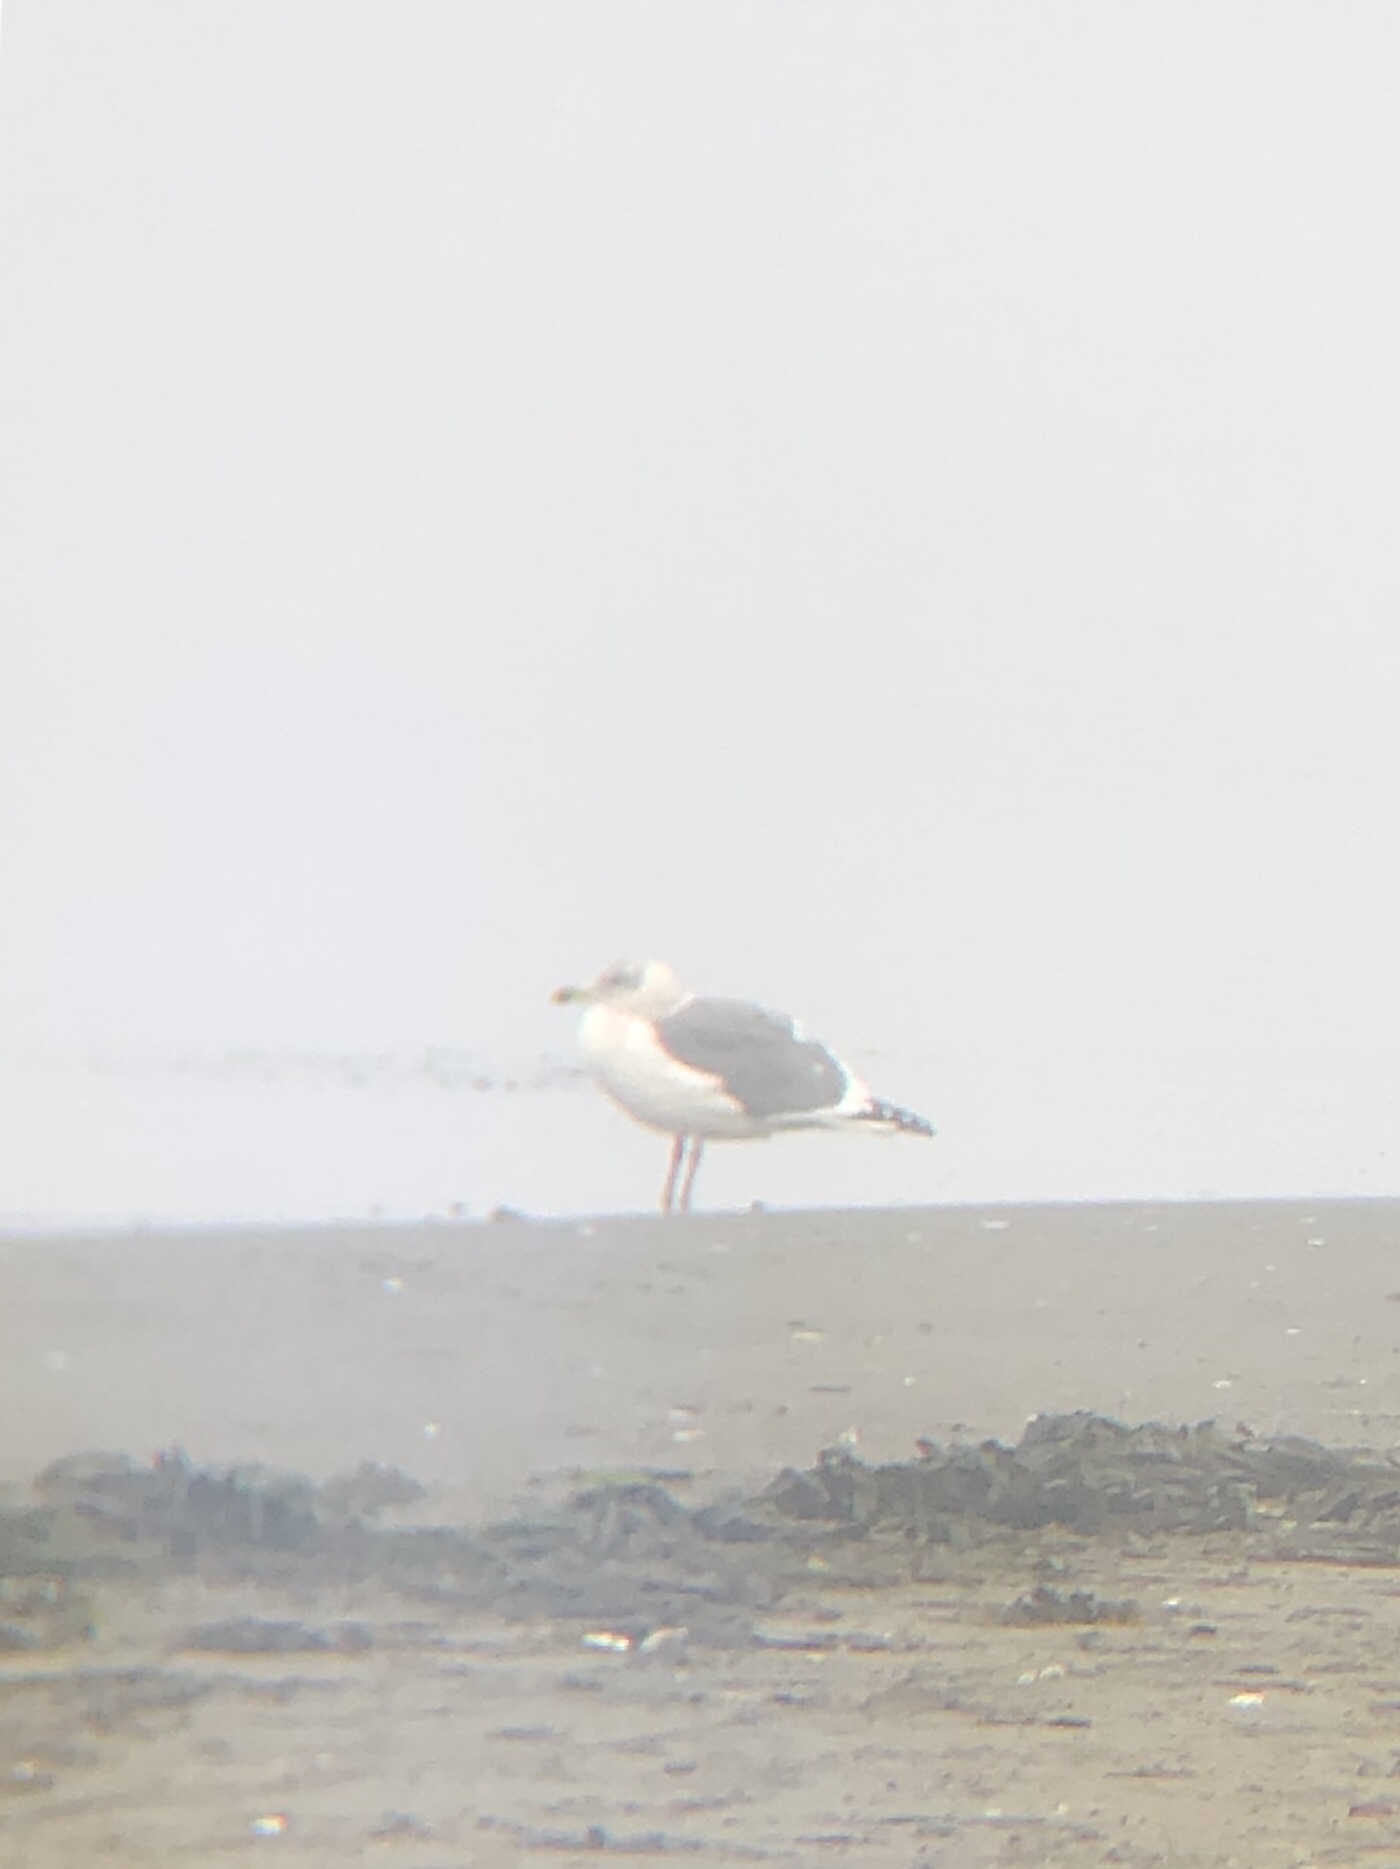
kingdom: Animalia
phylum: Chordata
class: Aves
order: Charadriiformes
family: Laridae
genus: Larus
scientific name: Larus occidentalis
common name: Western gull
